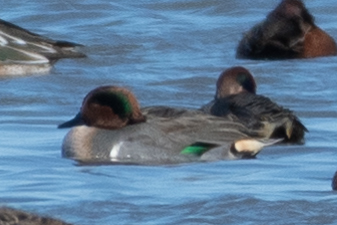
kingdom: Animalia
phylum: Chordata
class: Aves
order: Anseriformes
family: Anatidae
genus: Anas
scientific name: Anas crecca
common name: Eurasian teal
